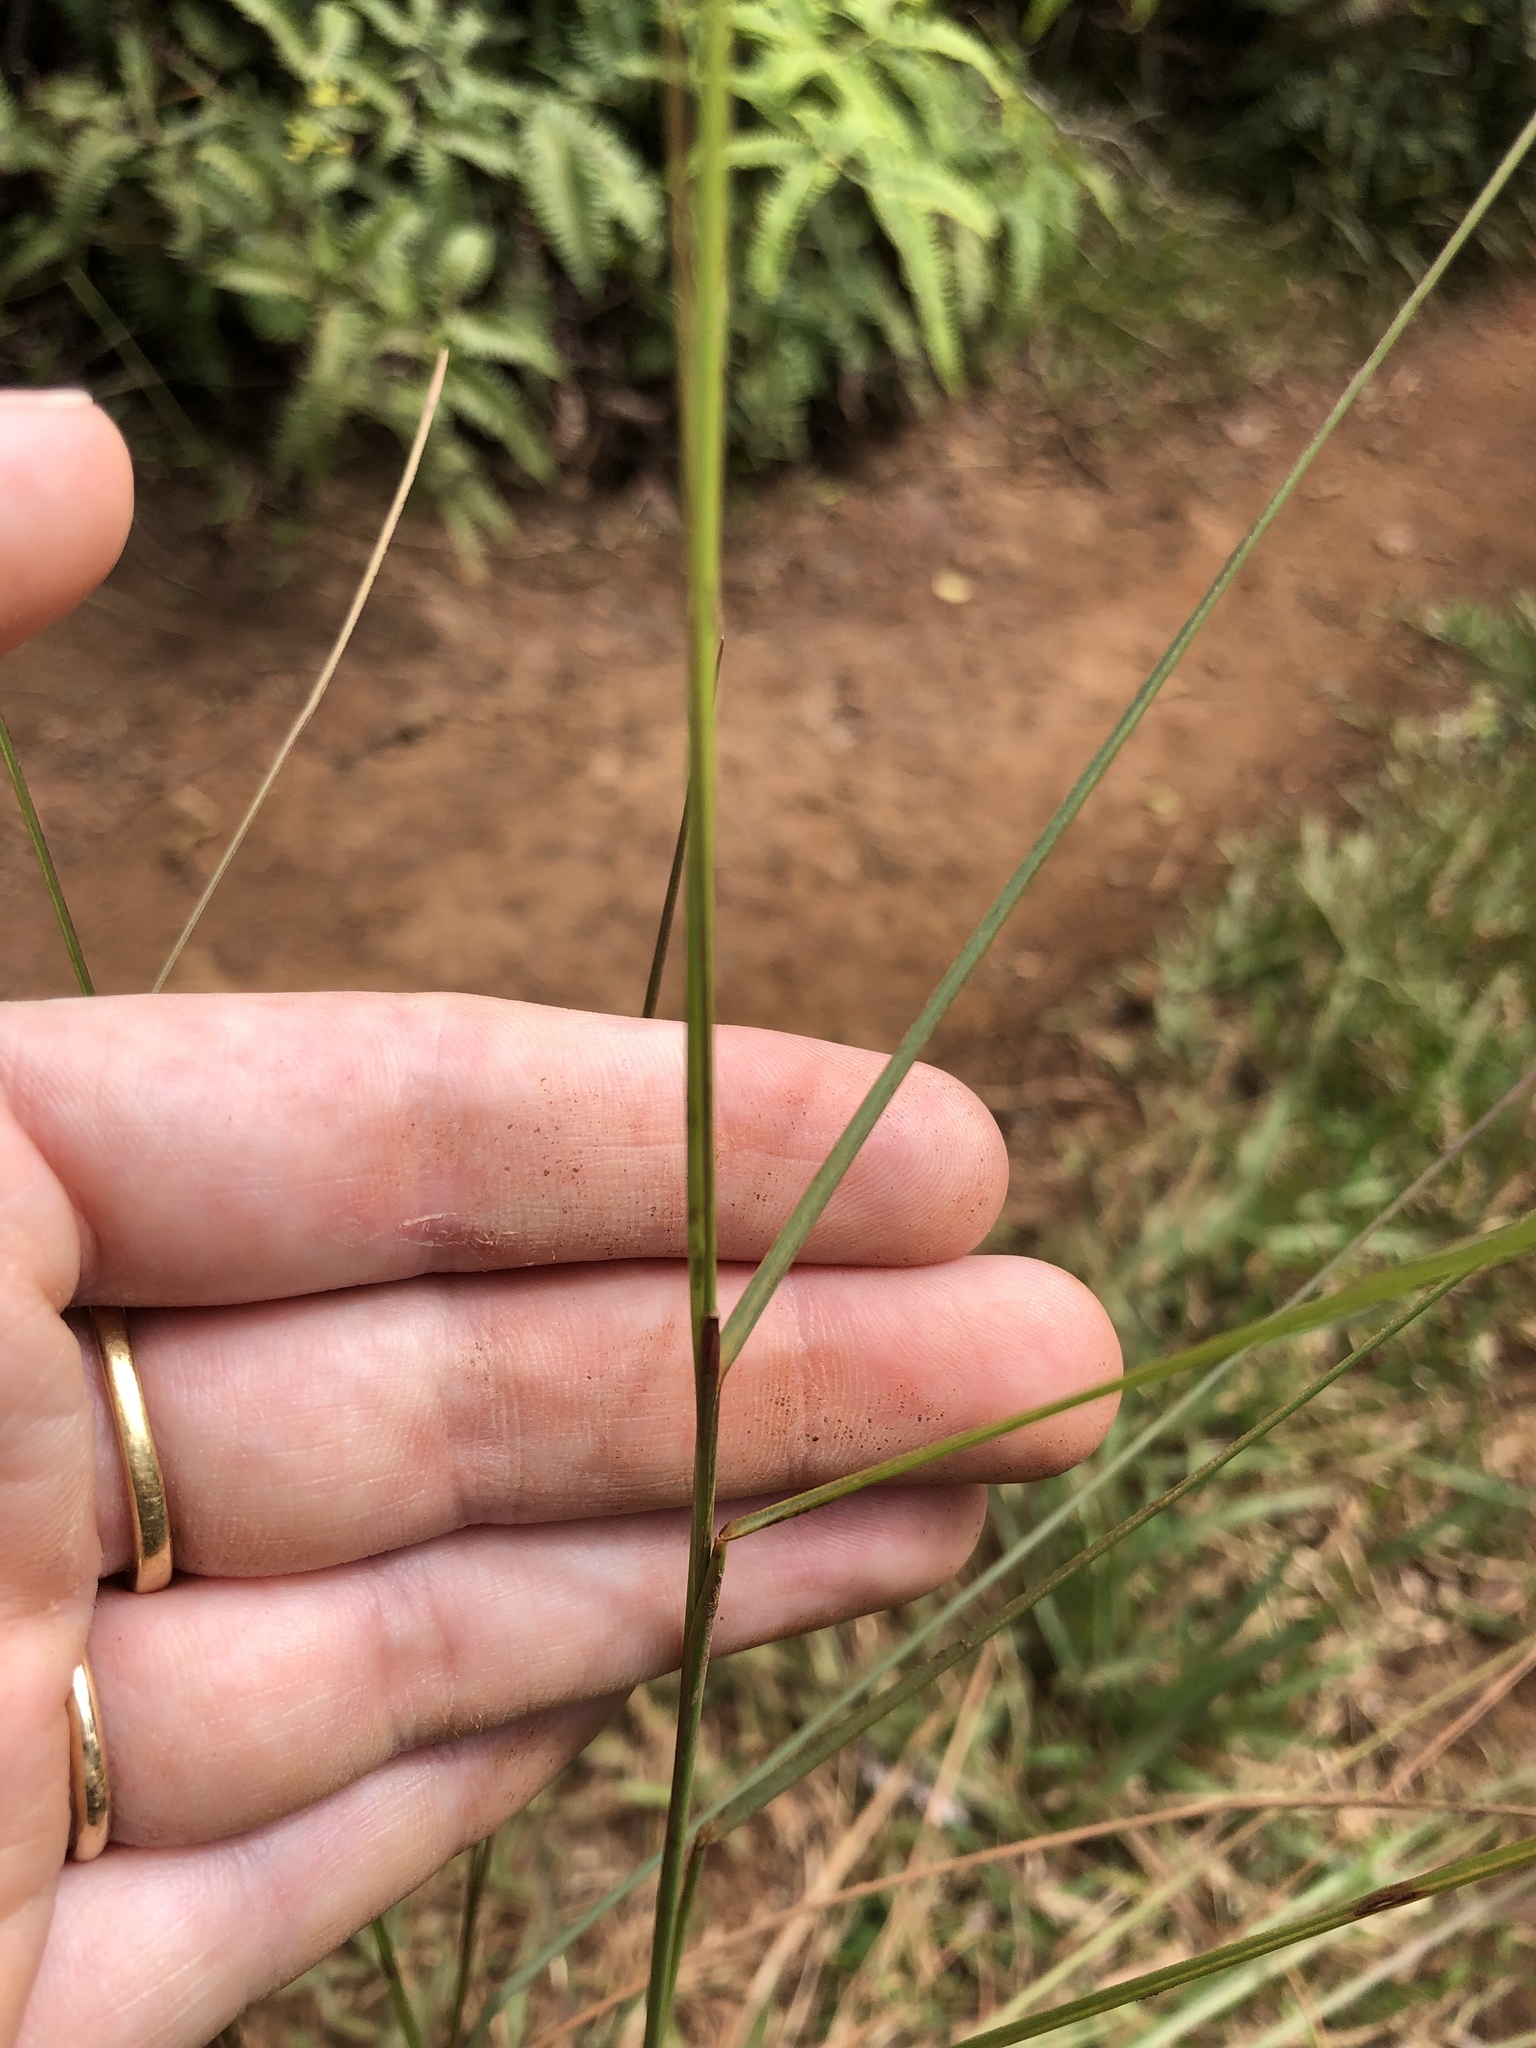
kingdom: Plantae
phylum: Tracheophyta
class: Liliopsida
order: Poales
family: Poaceae
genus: Andropogon
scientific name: Andropogon virginicus
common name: Broomsedge bluestem
